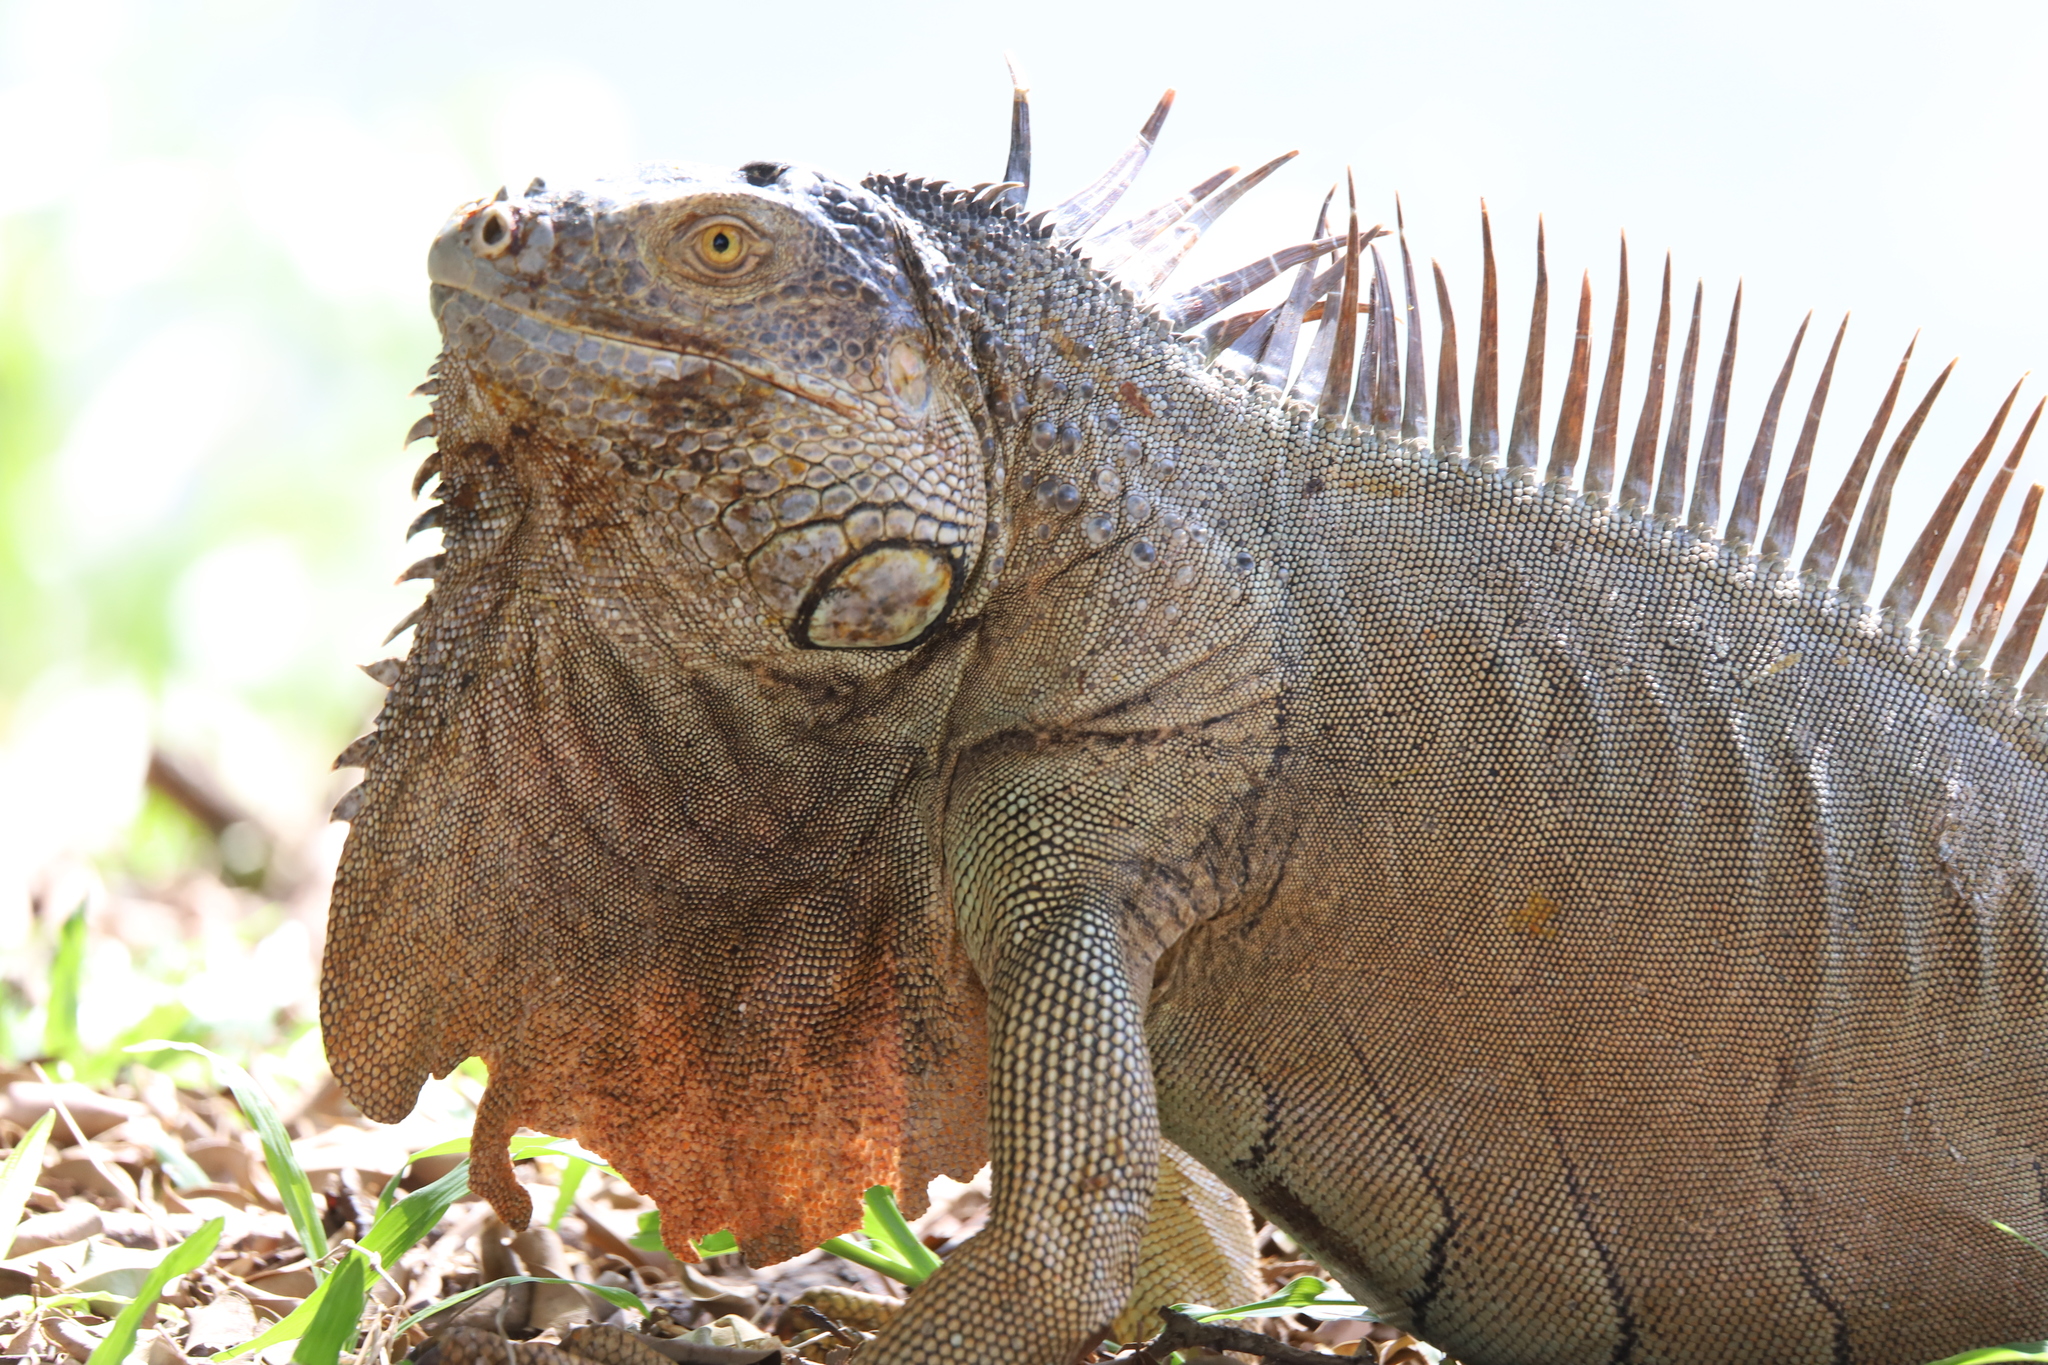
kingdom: Animalia
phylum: Chordata
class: Squamata
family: Iguanidae
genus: Iguana
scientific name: Iguana iguana
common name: Green iguana
